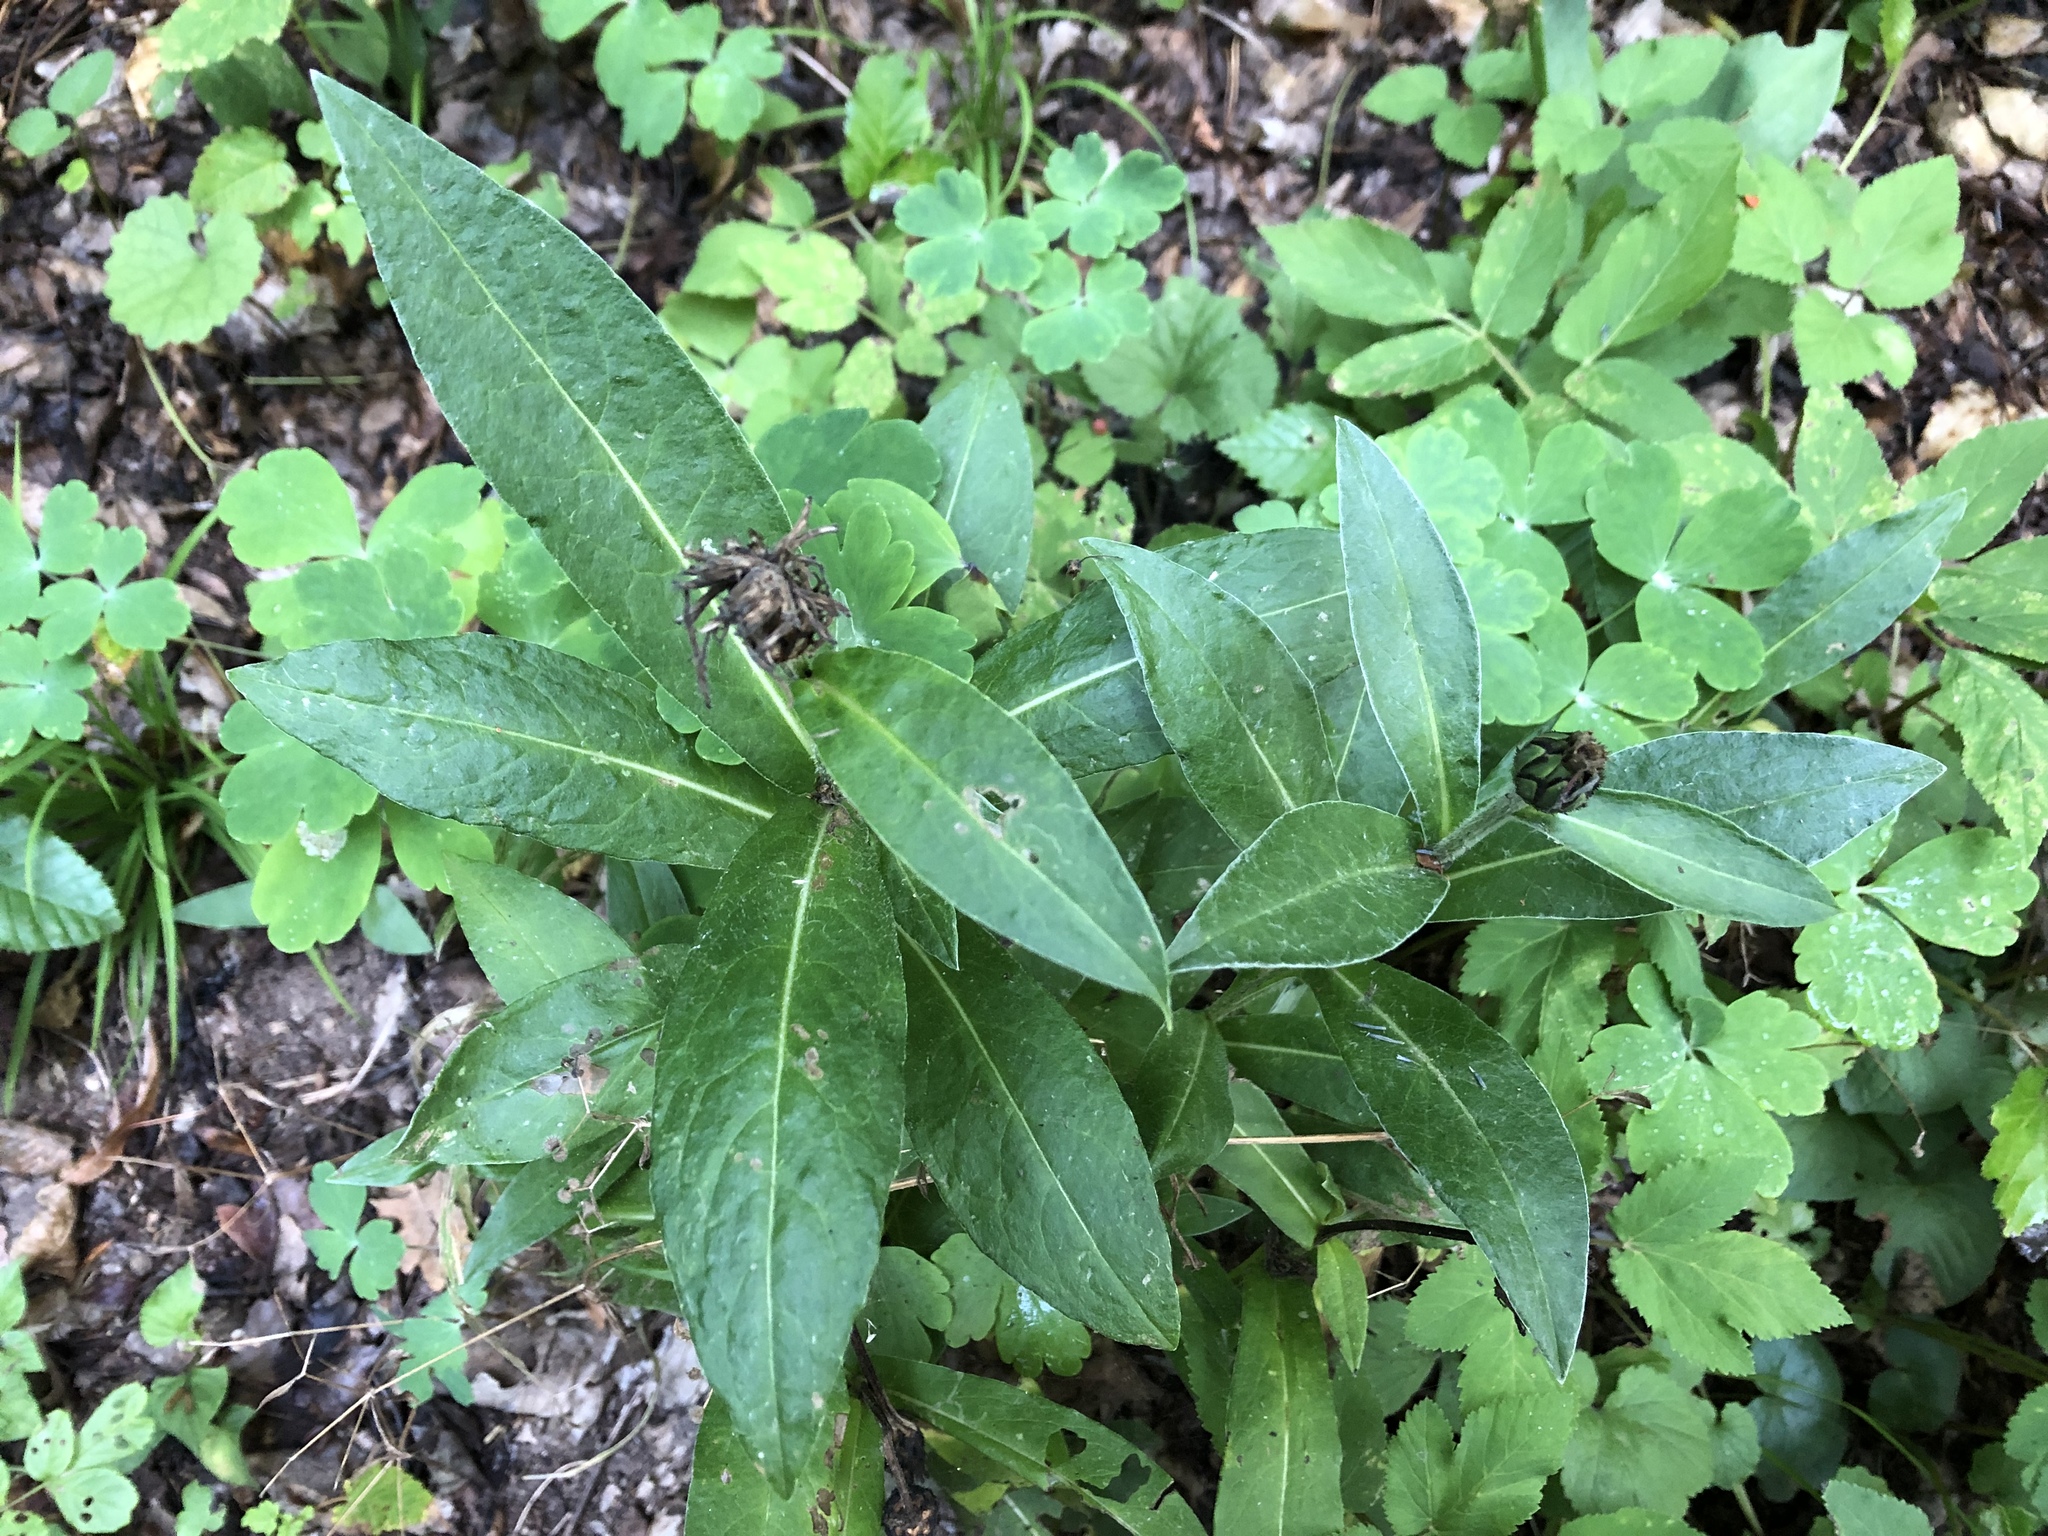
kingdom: Plantae
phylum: Tracheophyta
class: Magnoliopsida
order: Asterales
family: Asteraceae
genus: Centaurea
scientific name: Centaurea montana
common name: Perennial cornflower
